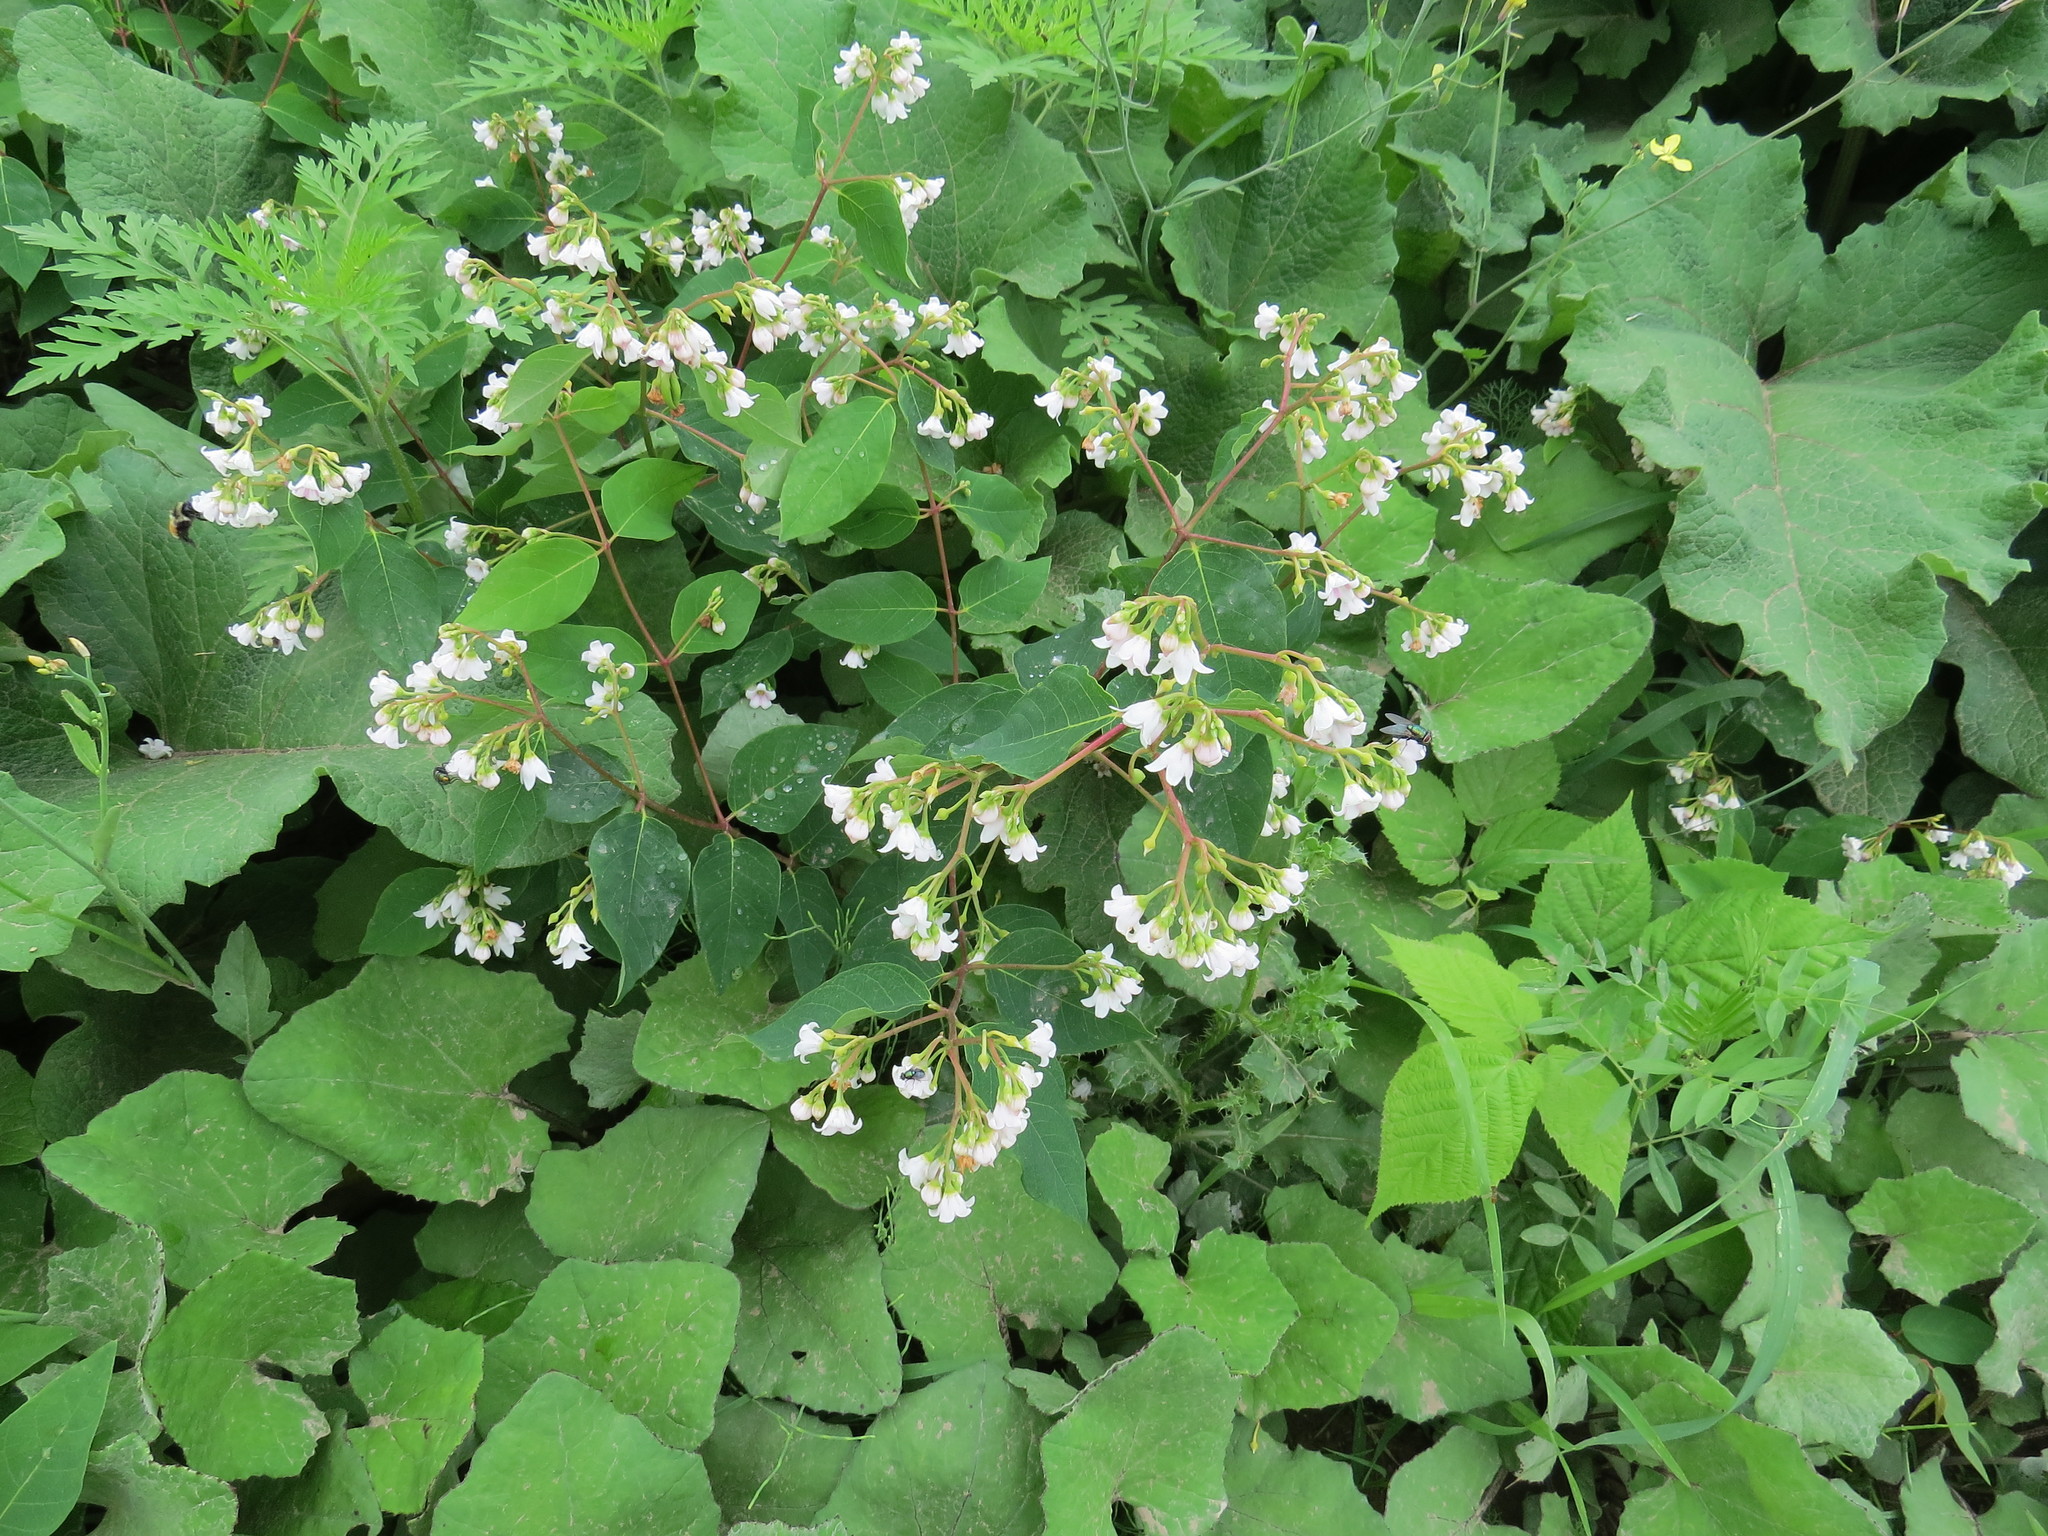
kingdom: Plantae
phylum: Tracheophyta
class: Magnoliopsida
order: Gentianales
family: Apocynaceae
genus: Apocynum
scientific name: Apocynum androsaemifolium
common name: Spreading dogbane
